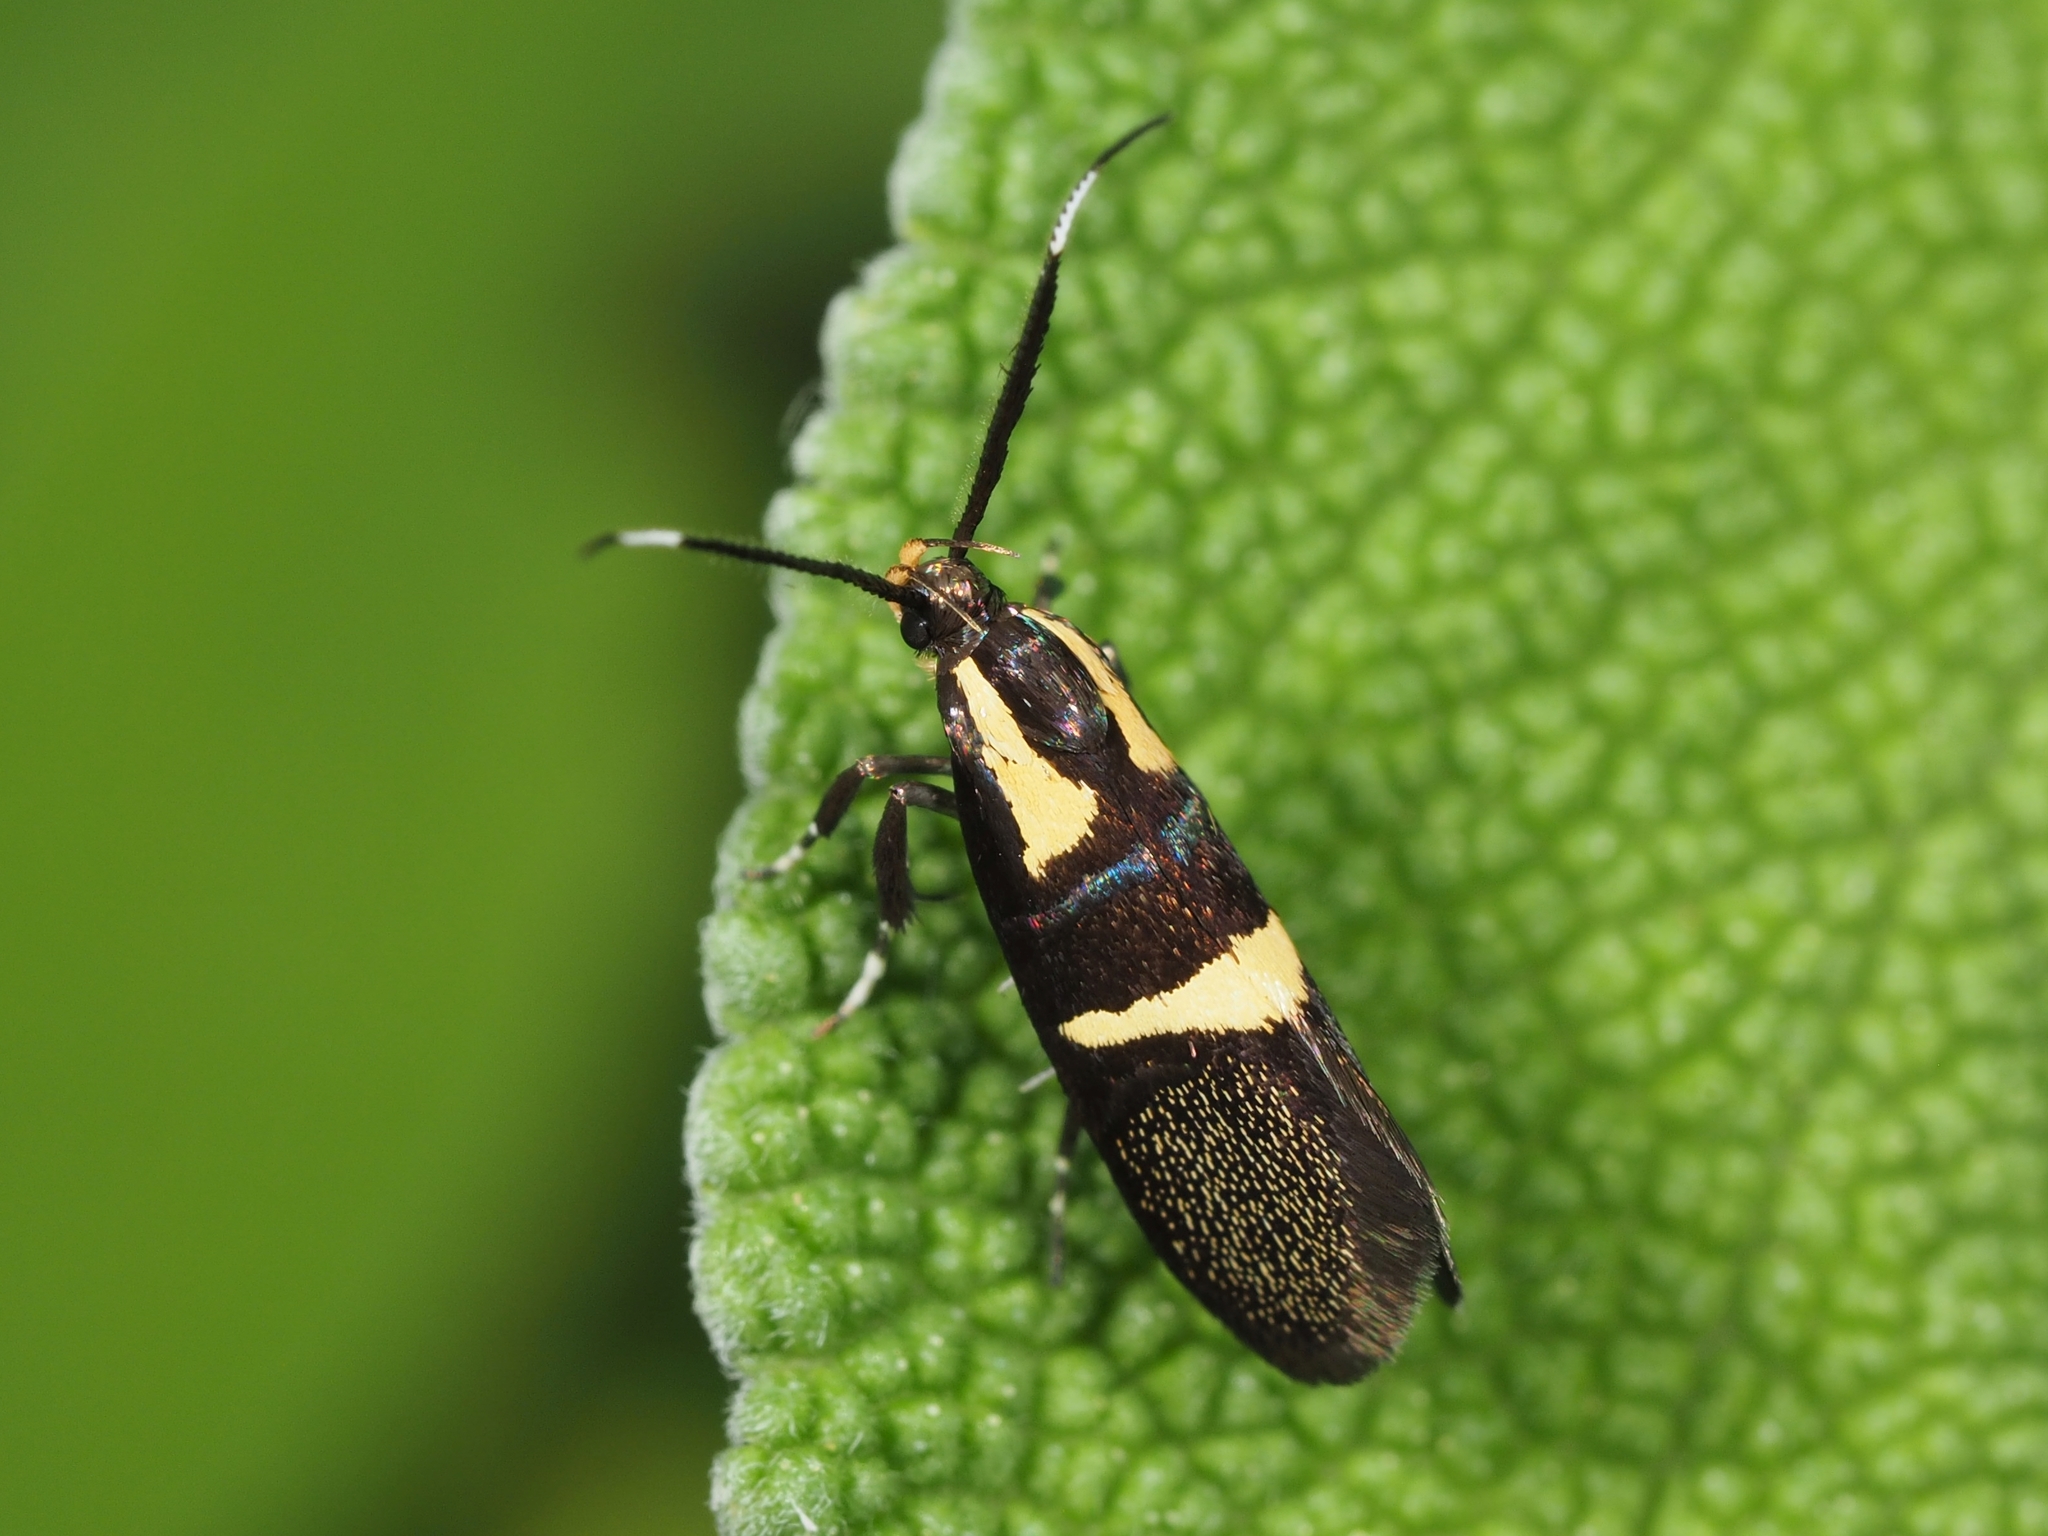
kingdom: Animalia
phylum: Arthropoda
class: Insecta
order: Lepidoptera
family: Oecophoridae
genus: Dafa
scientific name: Dafa oliviella
